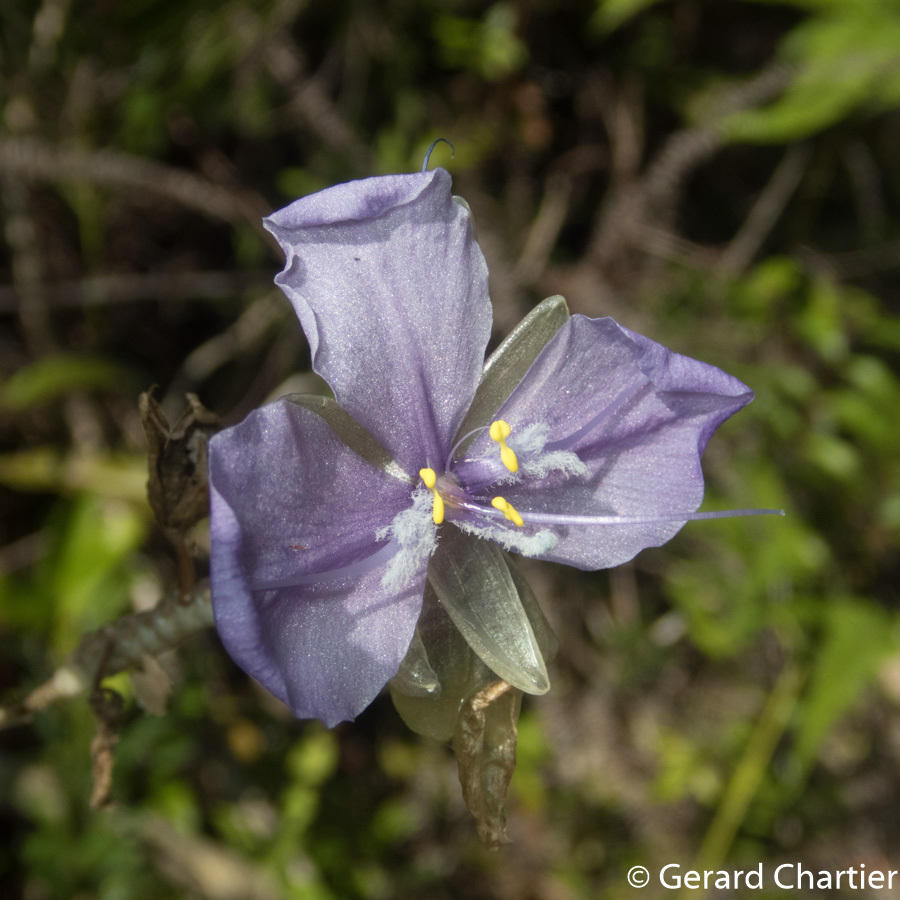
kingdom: Plantae
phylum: Tracheophyta
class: Liliopsida
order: Commelinales
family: Commelinaceae
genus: Murdannia
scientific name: Murdannia macrocarpa
